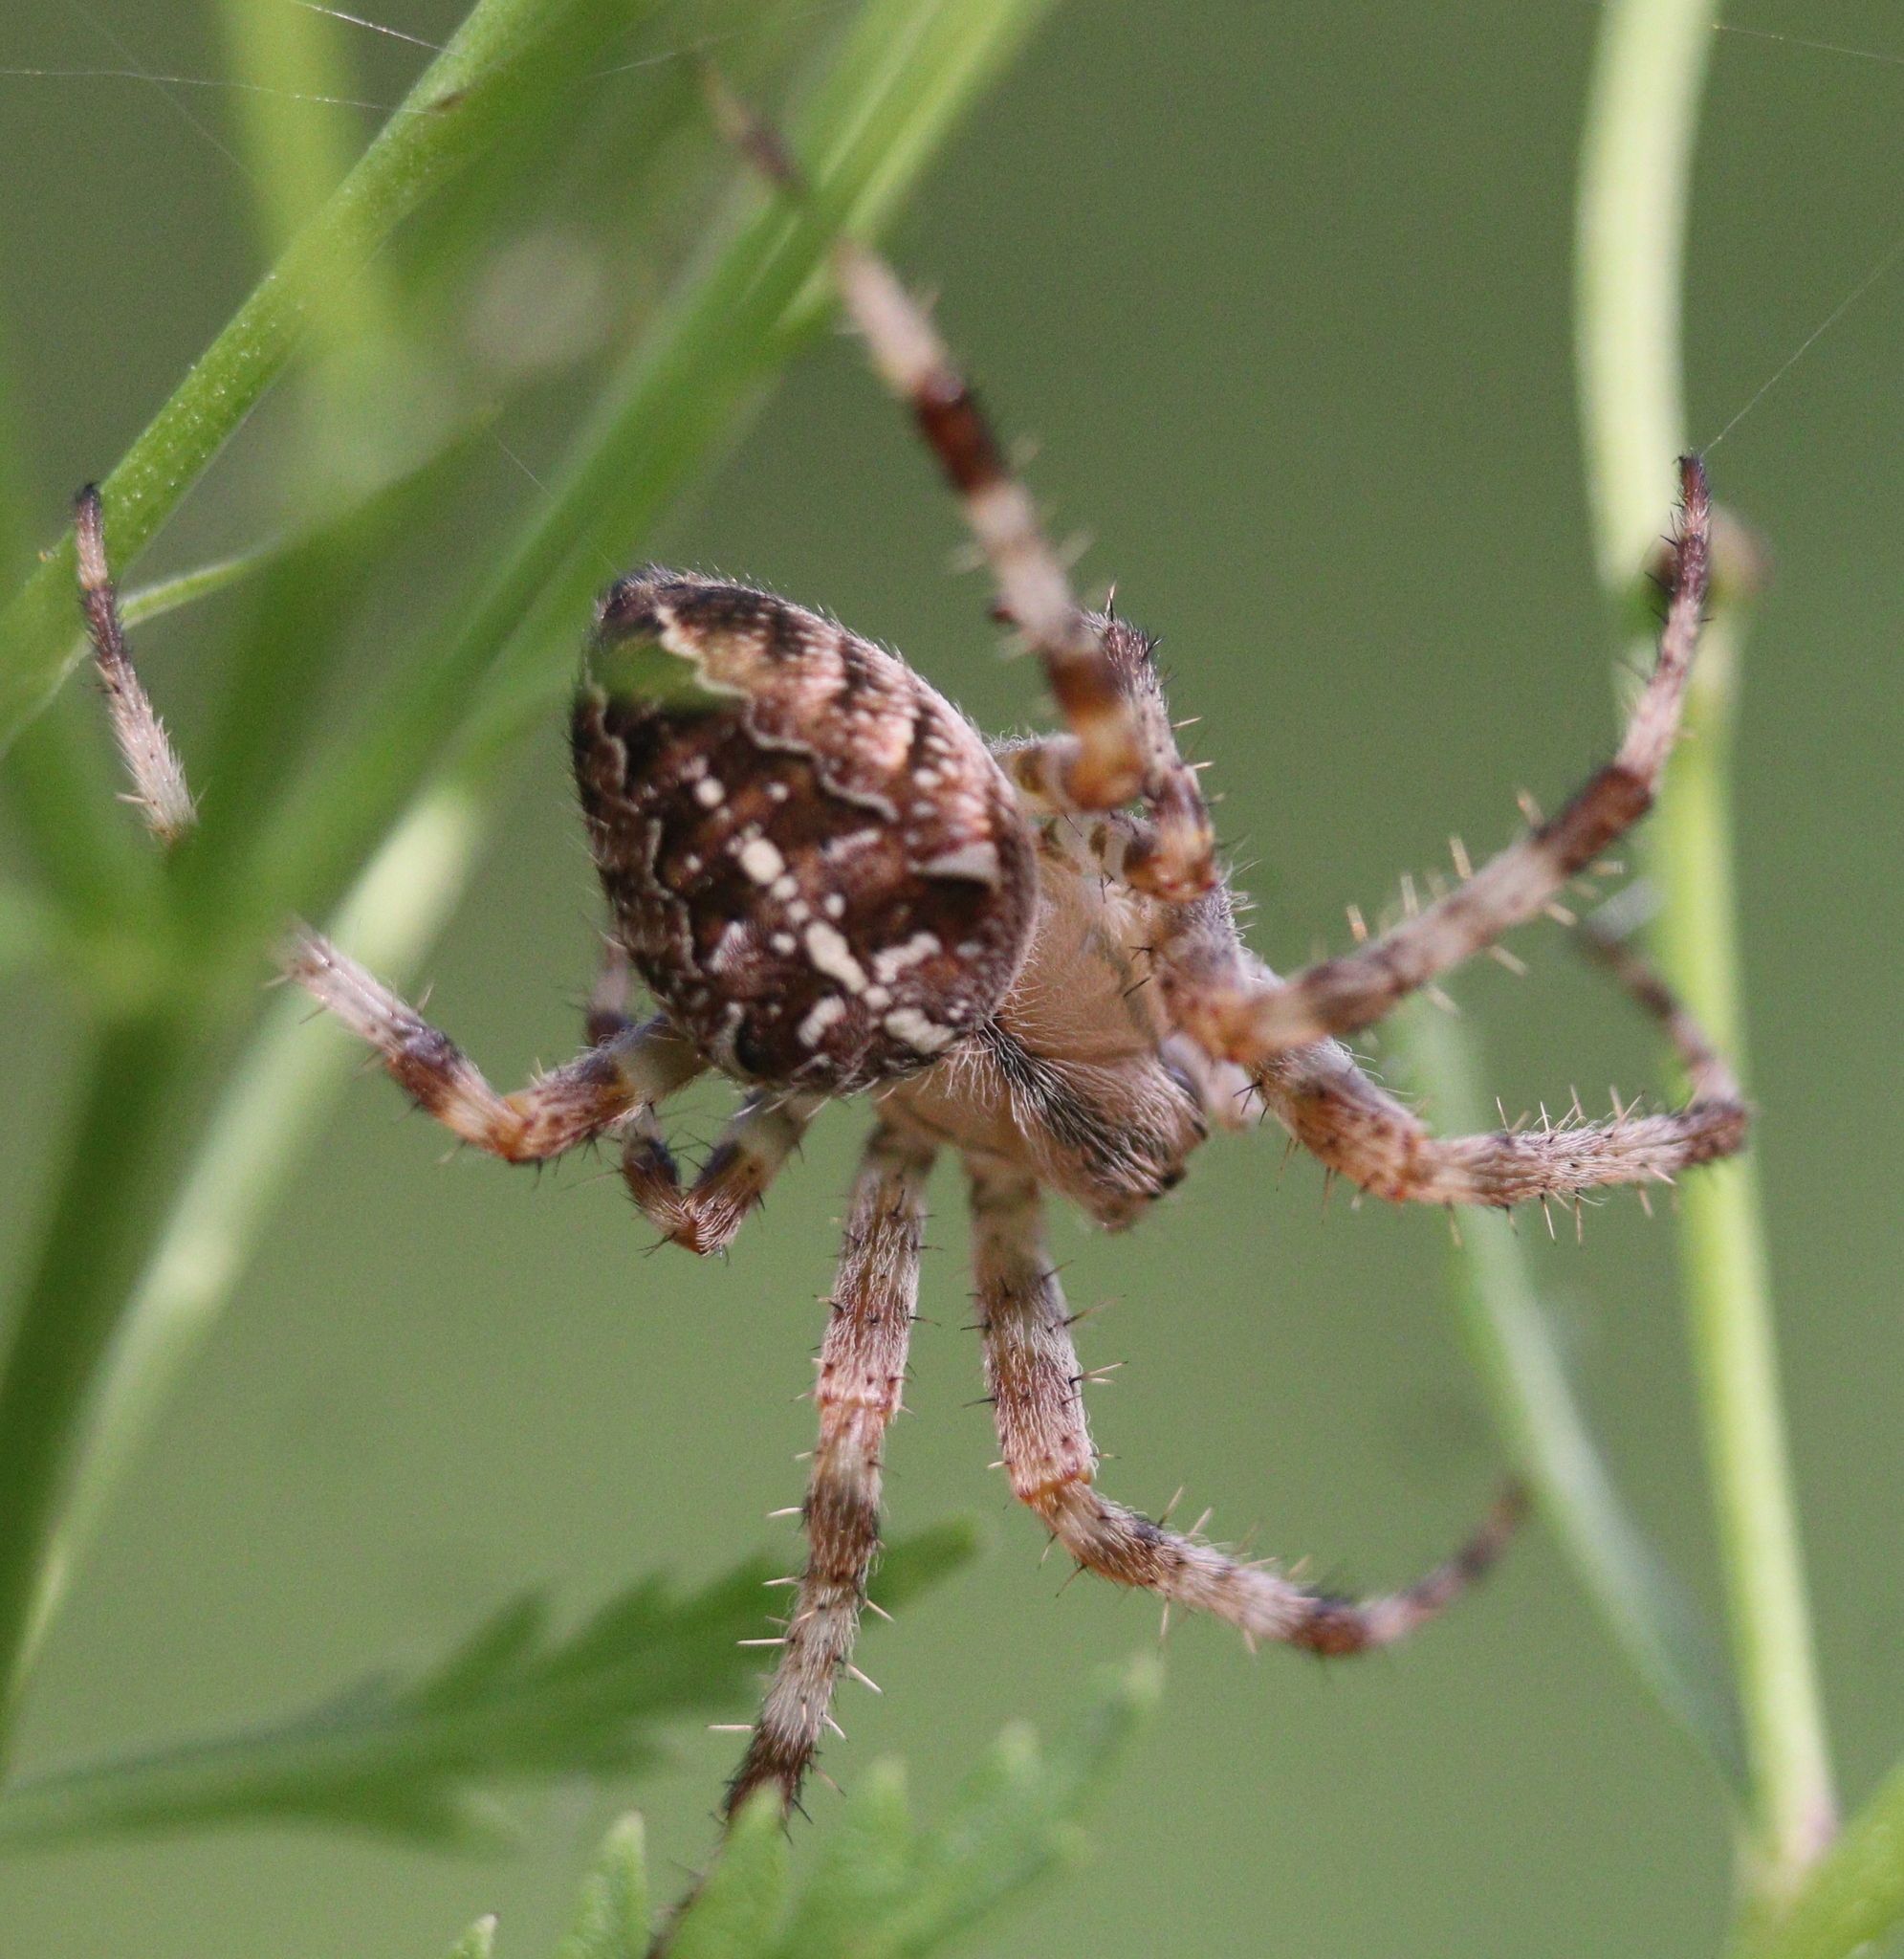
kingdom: Animalia
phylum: Arthropoda
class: Arachnida
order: Araneae
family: Araneidae
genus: Araneus
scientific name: Araneus diadematus
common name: Cross orbweaver
